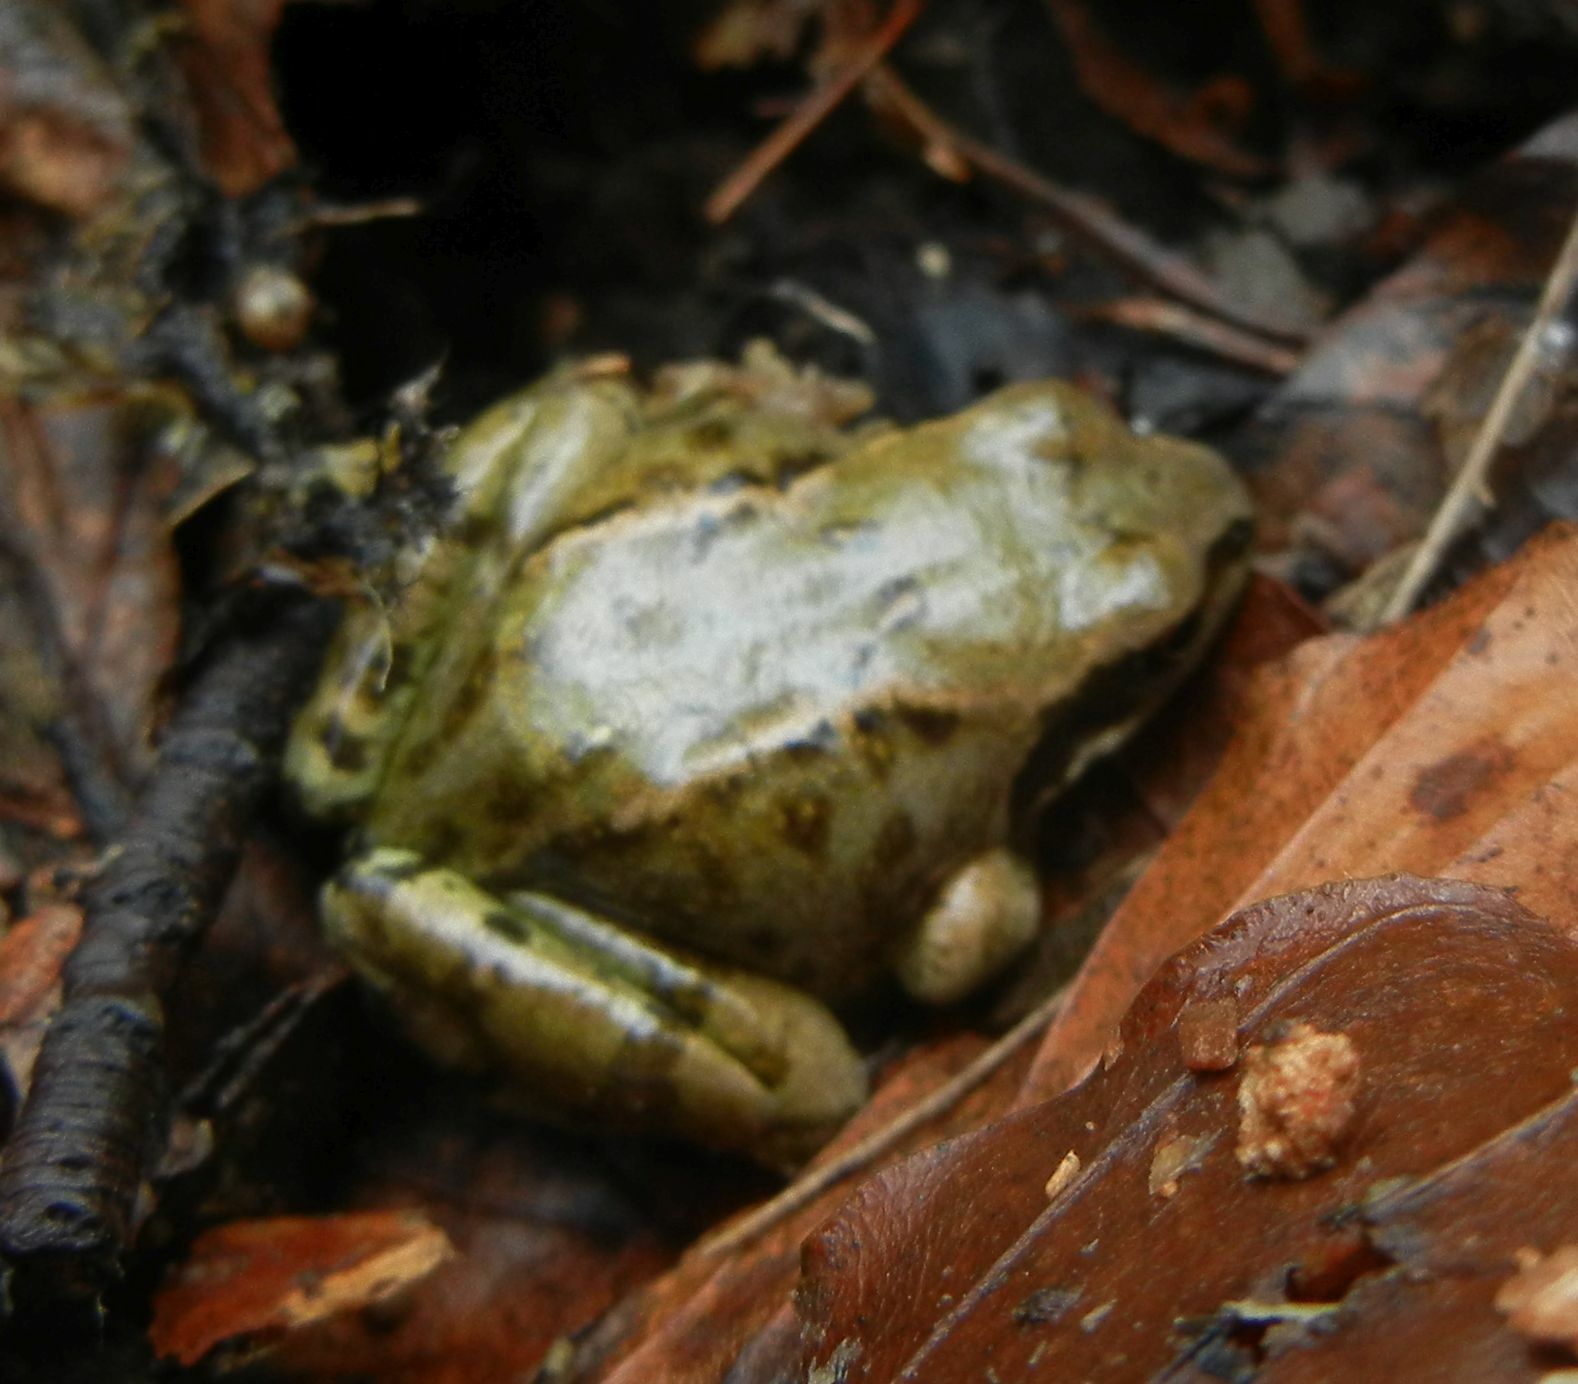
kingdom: Animalia
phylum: Chordata
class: Amphibia
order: Anura
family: Ranidae
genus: Rana
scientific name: Rana temporaria
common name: Common frog
